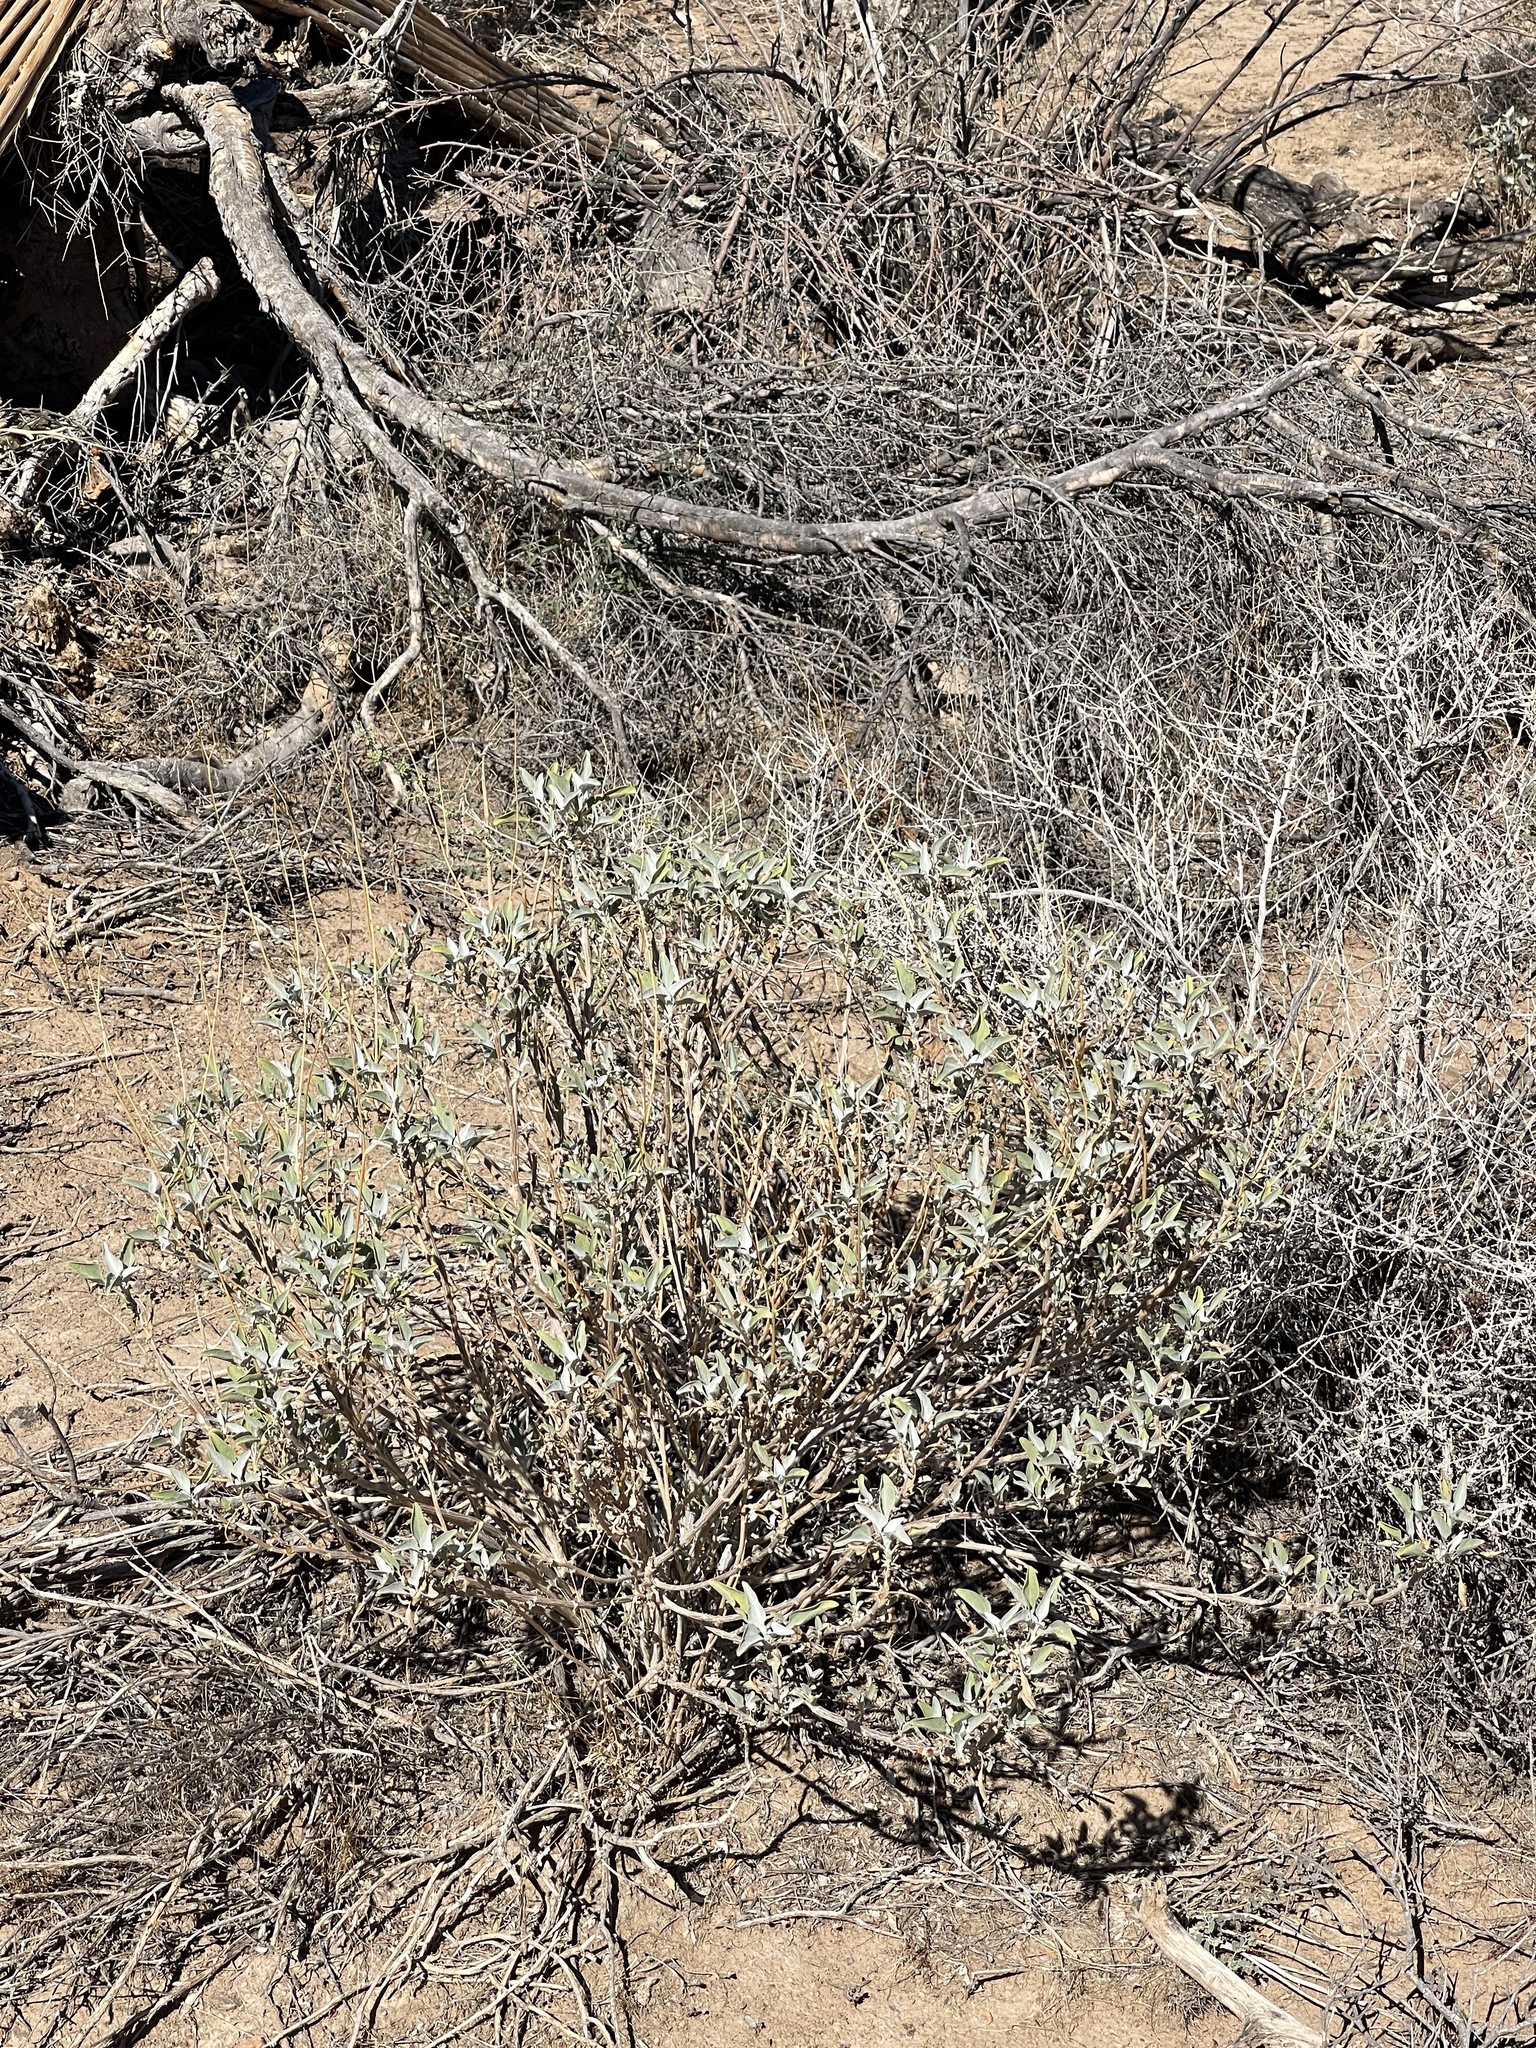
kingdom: Plantae
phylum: Tracheophyta
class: Magnoliopsida
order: Asterales
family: Asteraceae
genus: Encelia
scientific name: Encelia farinosa
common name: Brittlebush
